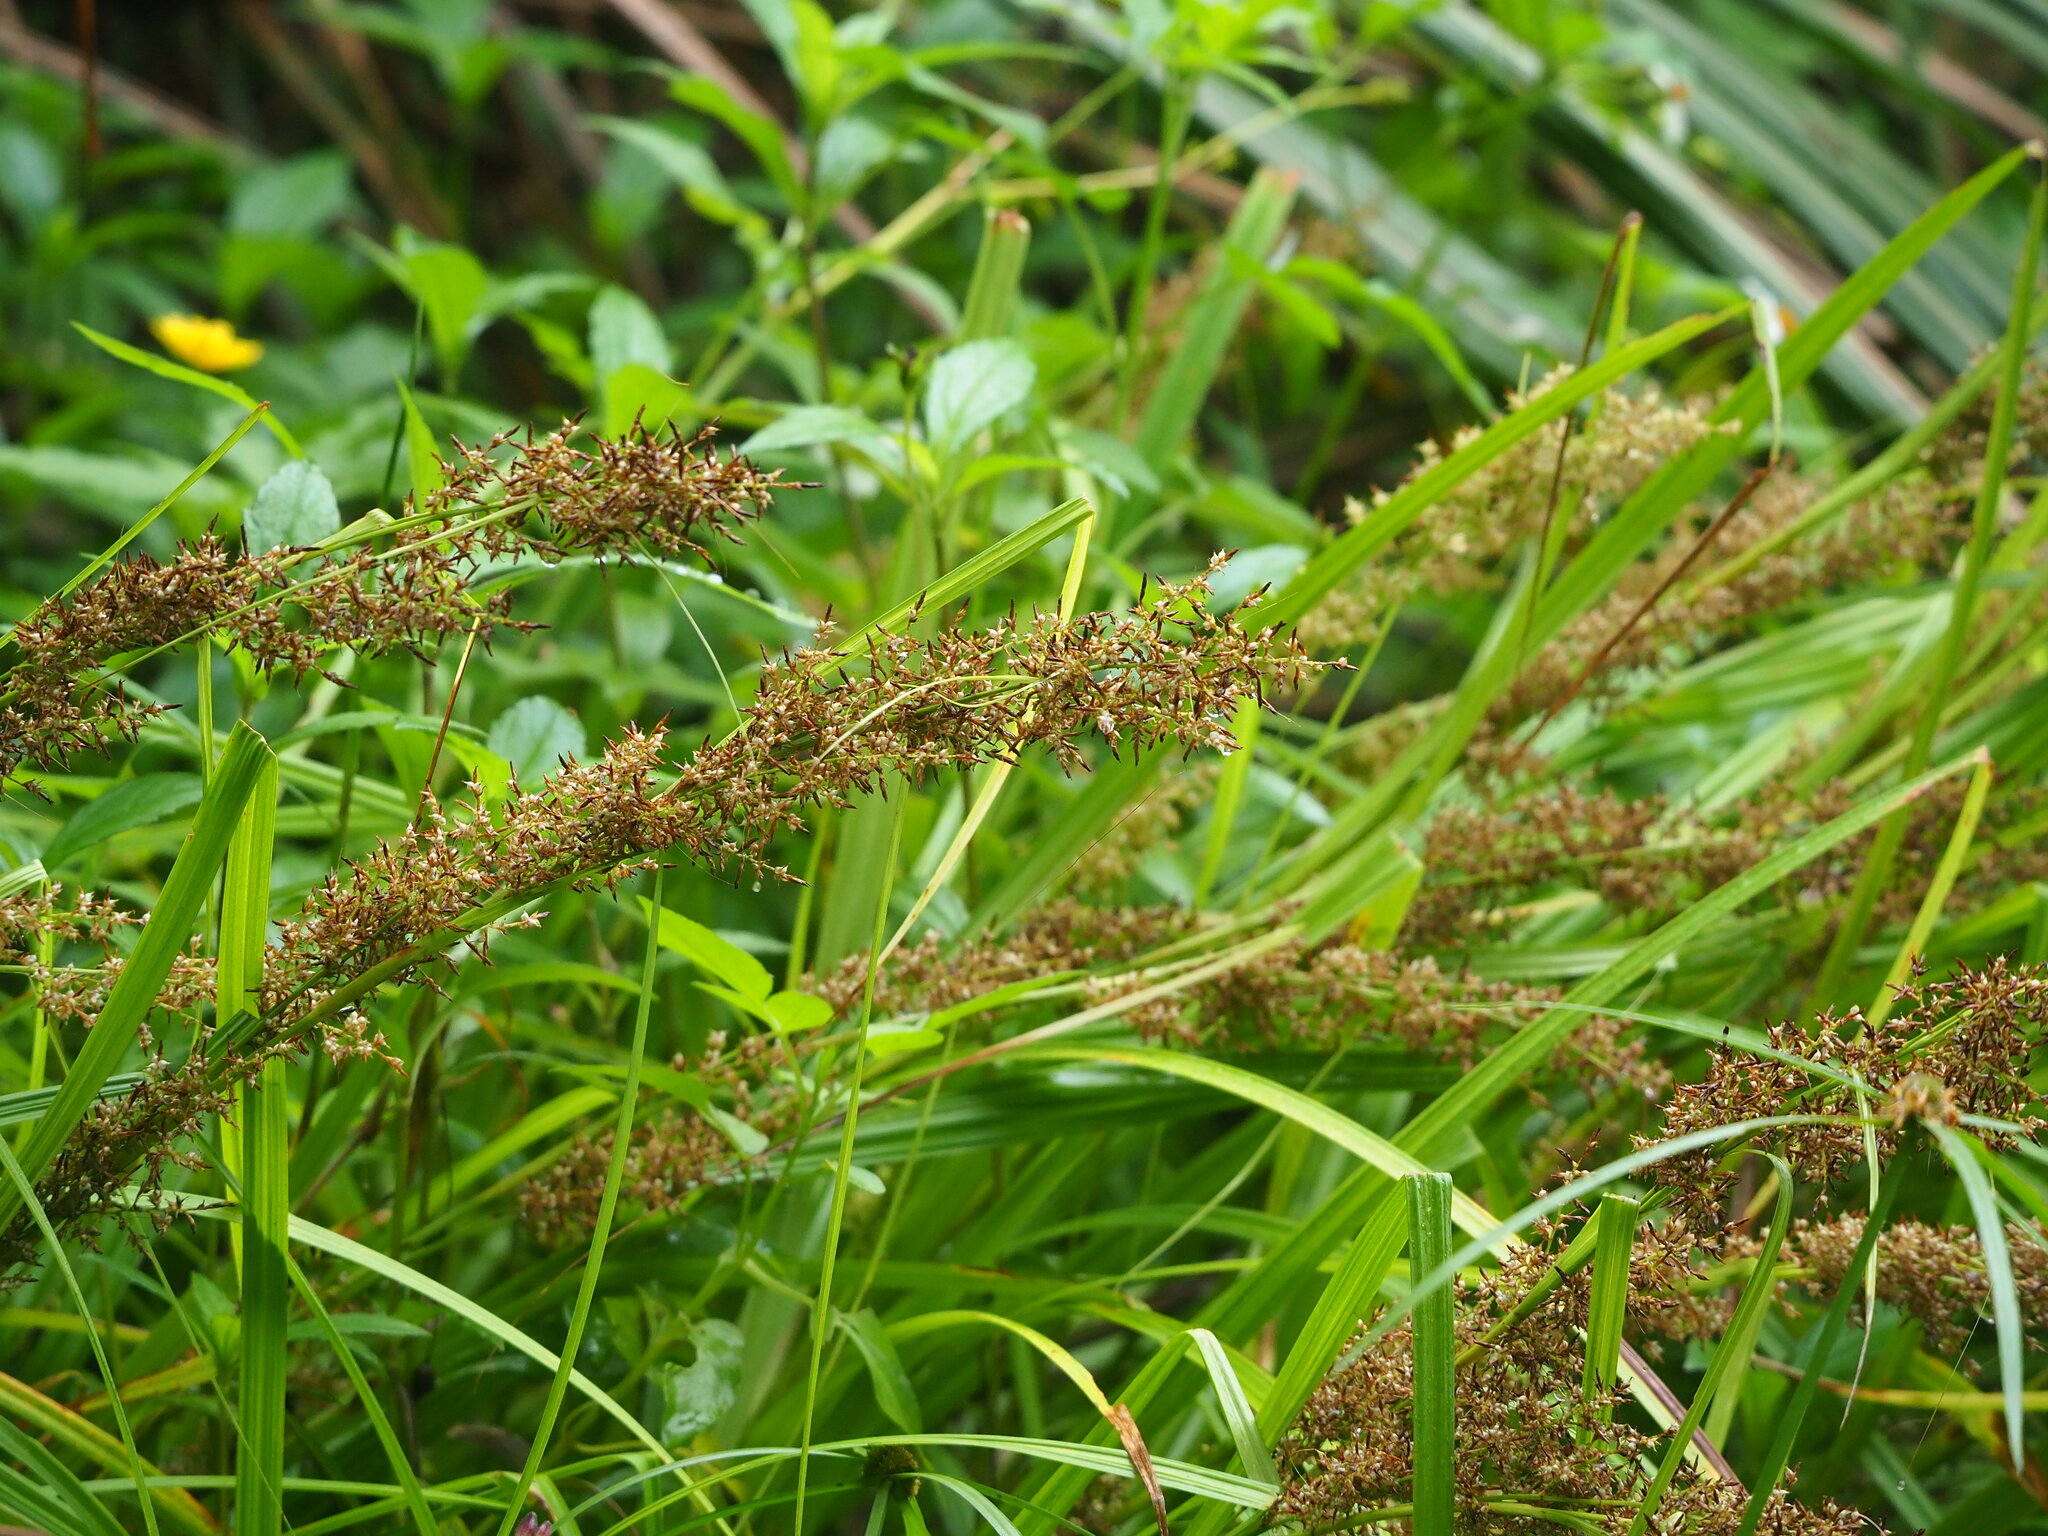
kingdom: Plantae
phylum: Tracheophyta
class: Liliopsida
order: Poales
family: Cyperaceae
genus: Carex
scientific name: Carex cruciata
